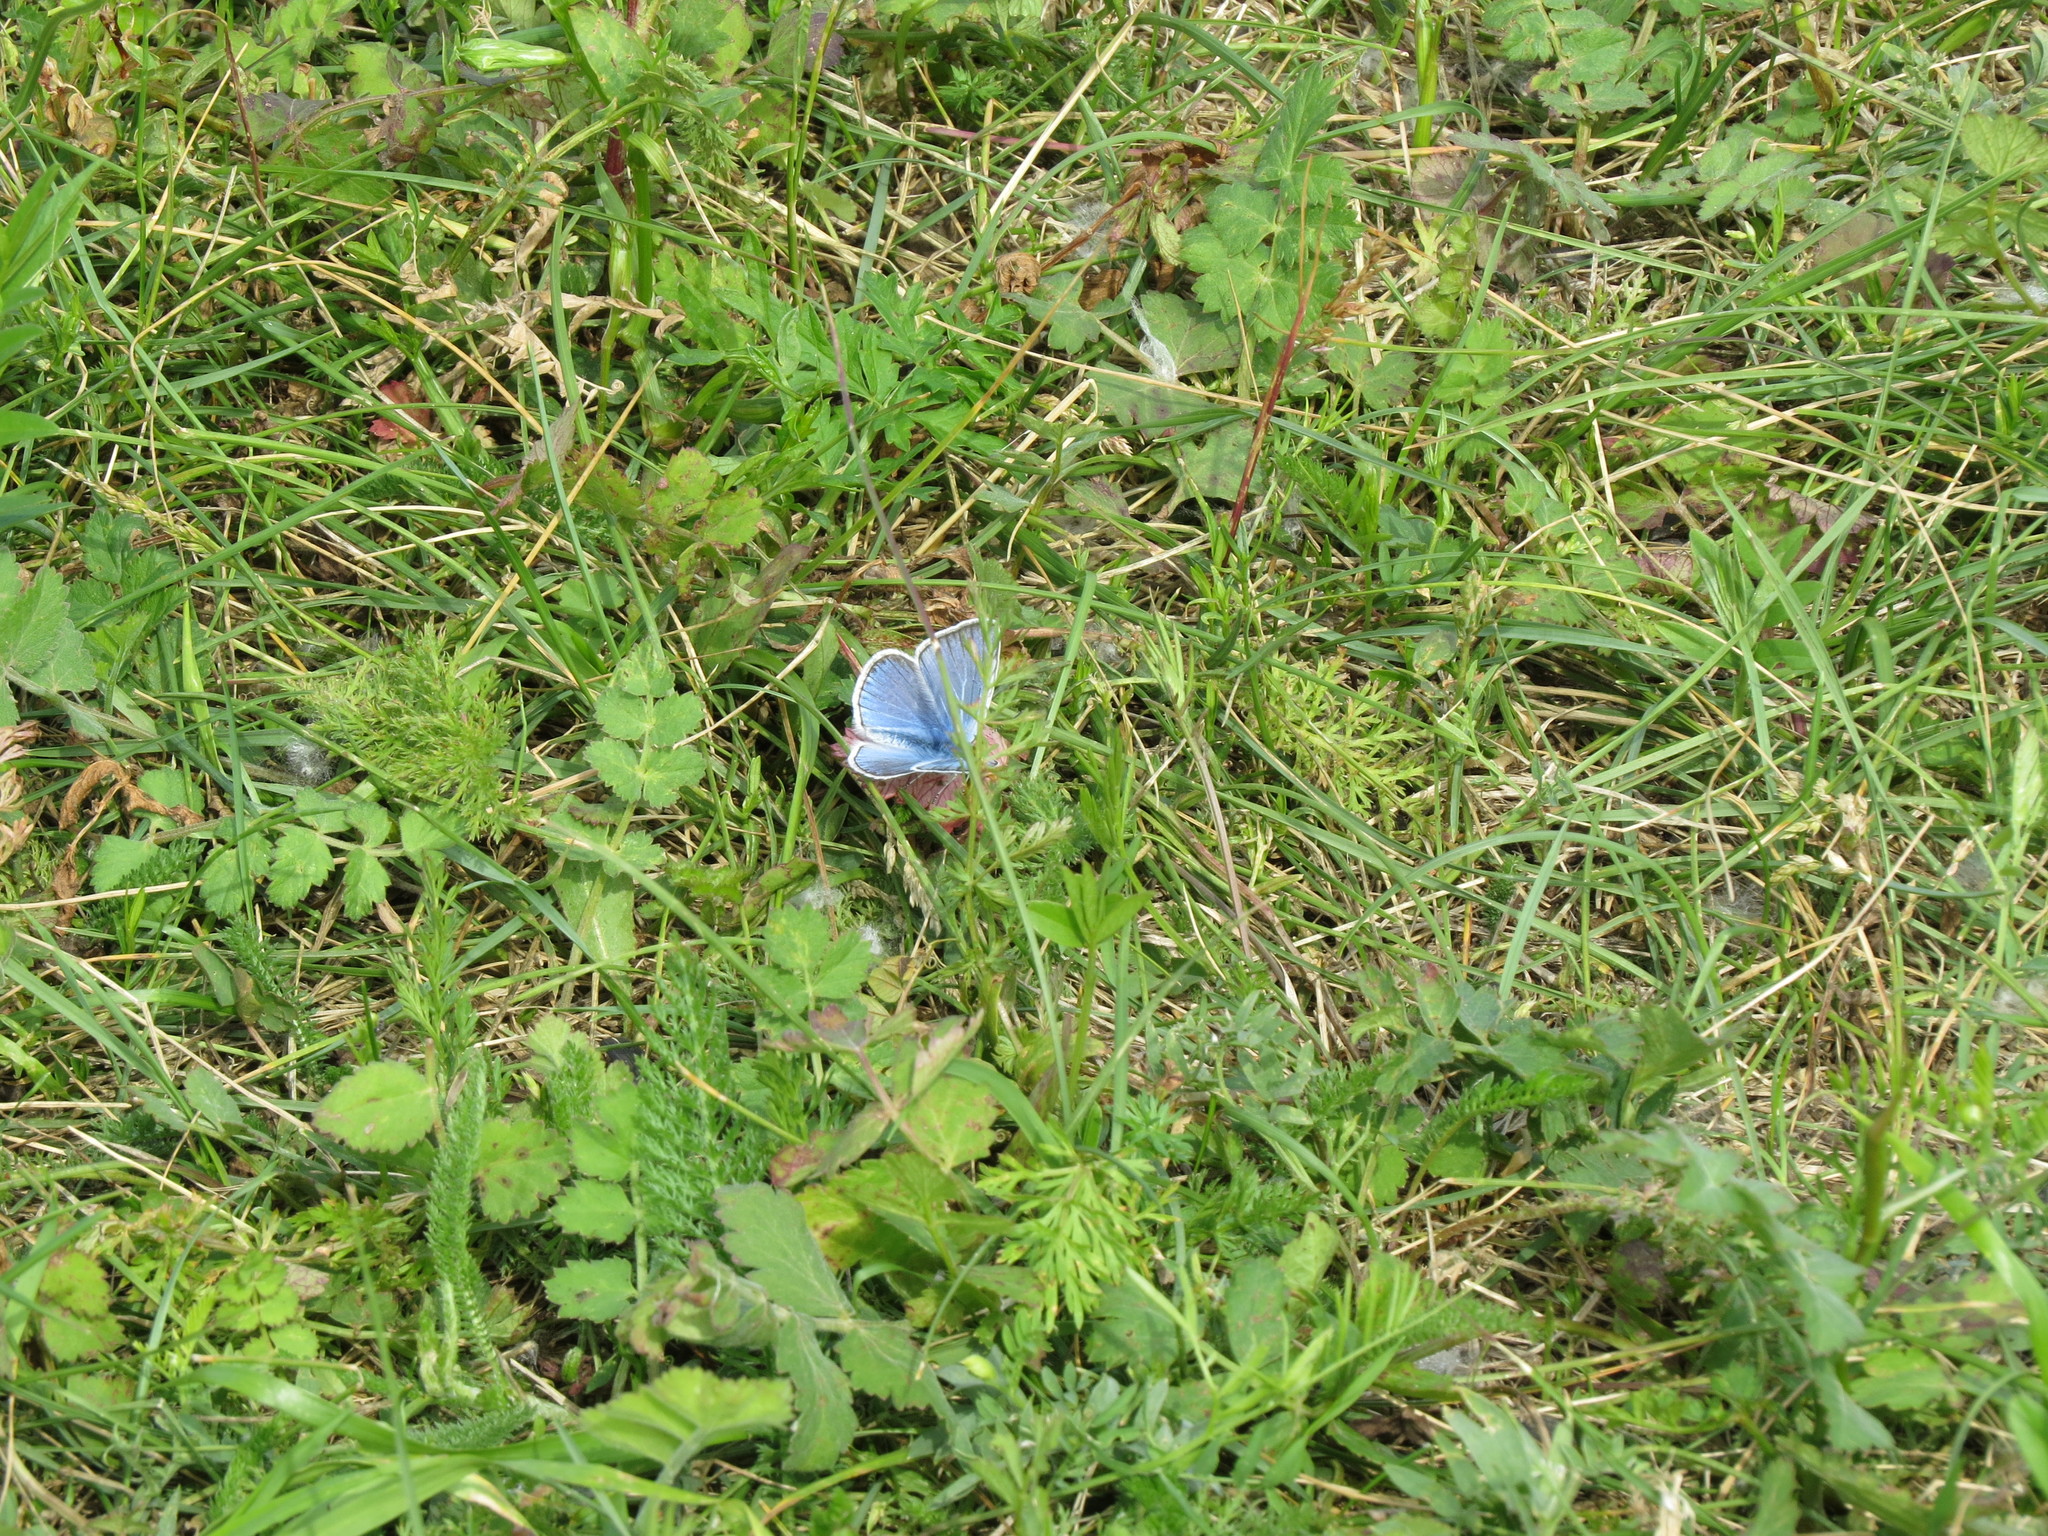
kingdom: Animalia
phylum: Arthropoda
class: Insecta
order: Lepidoptera
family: Lycaenidae
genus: Plebejus
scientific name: Plebejus amanda
